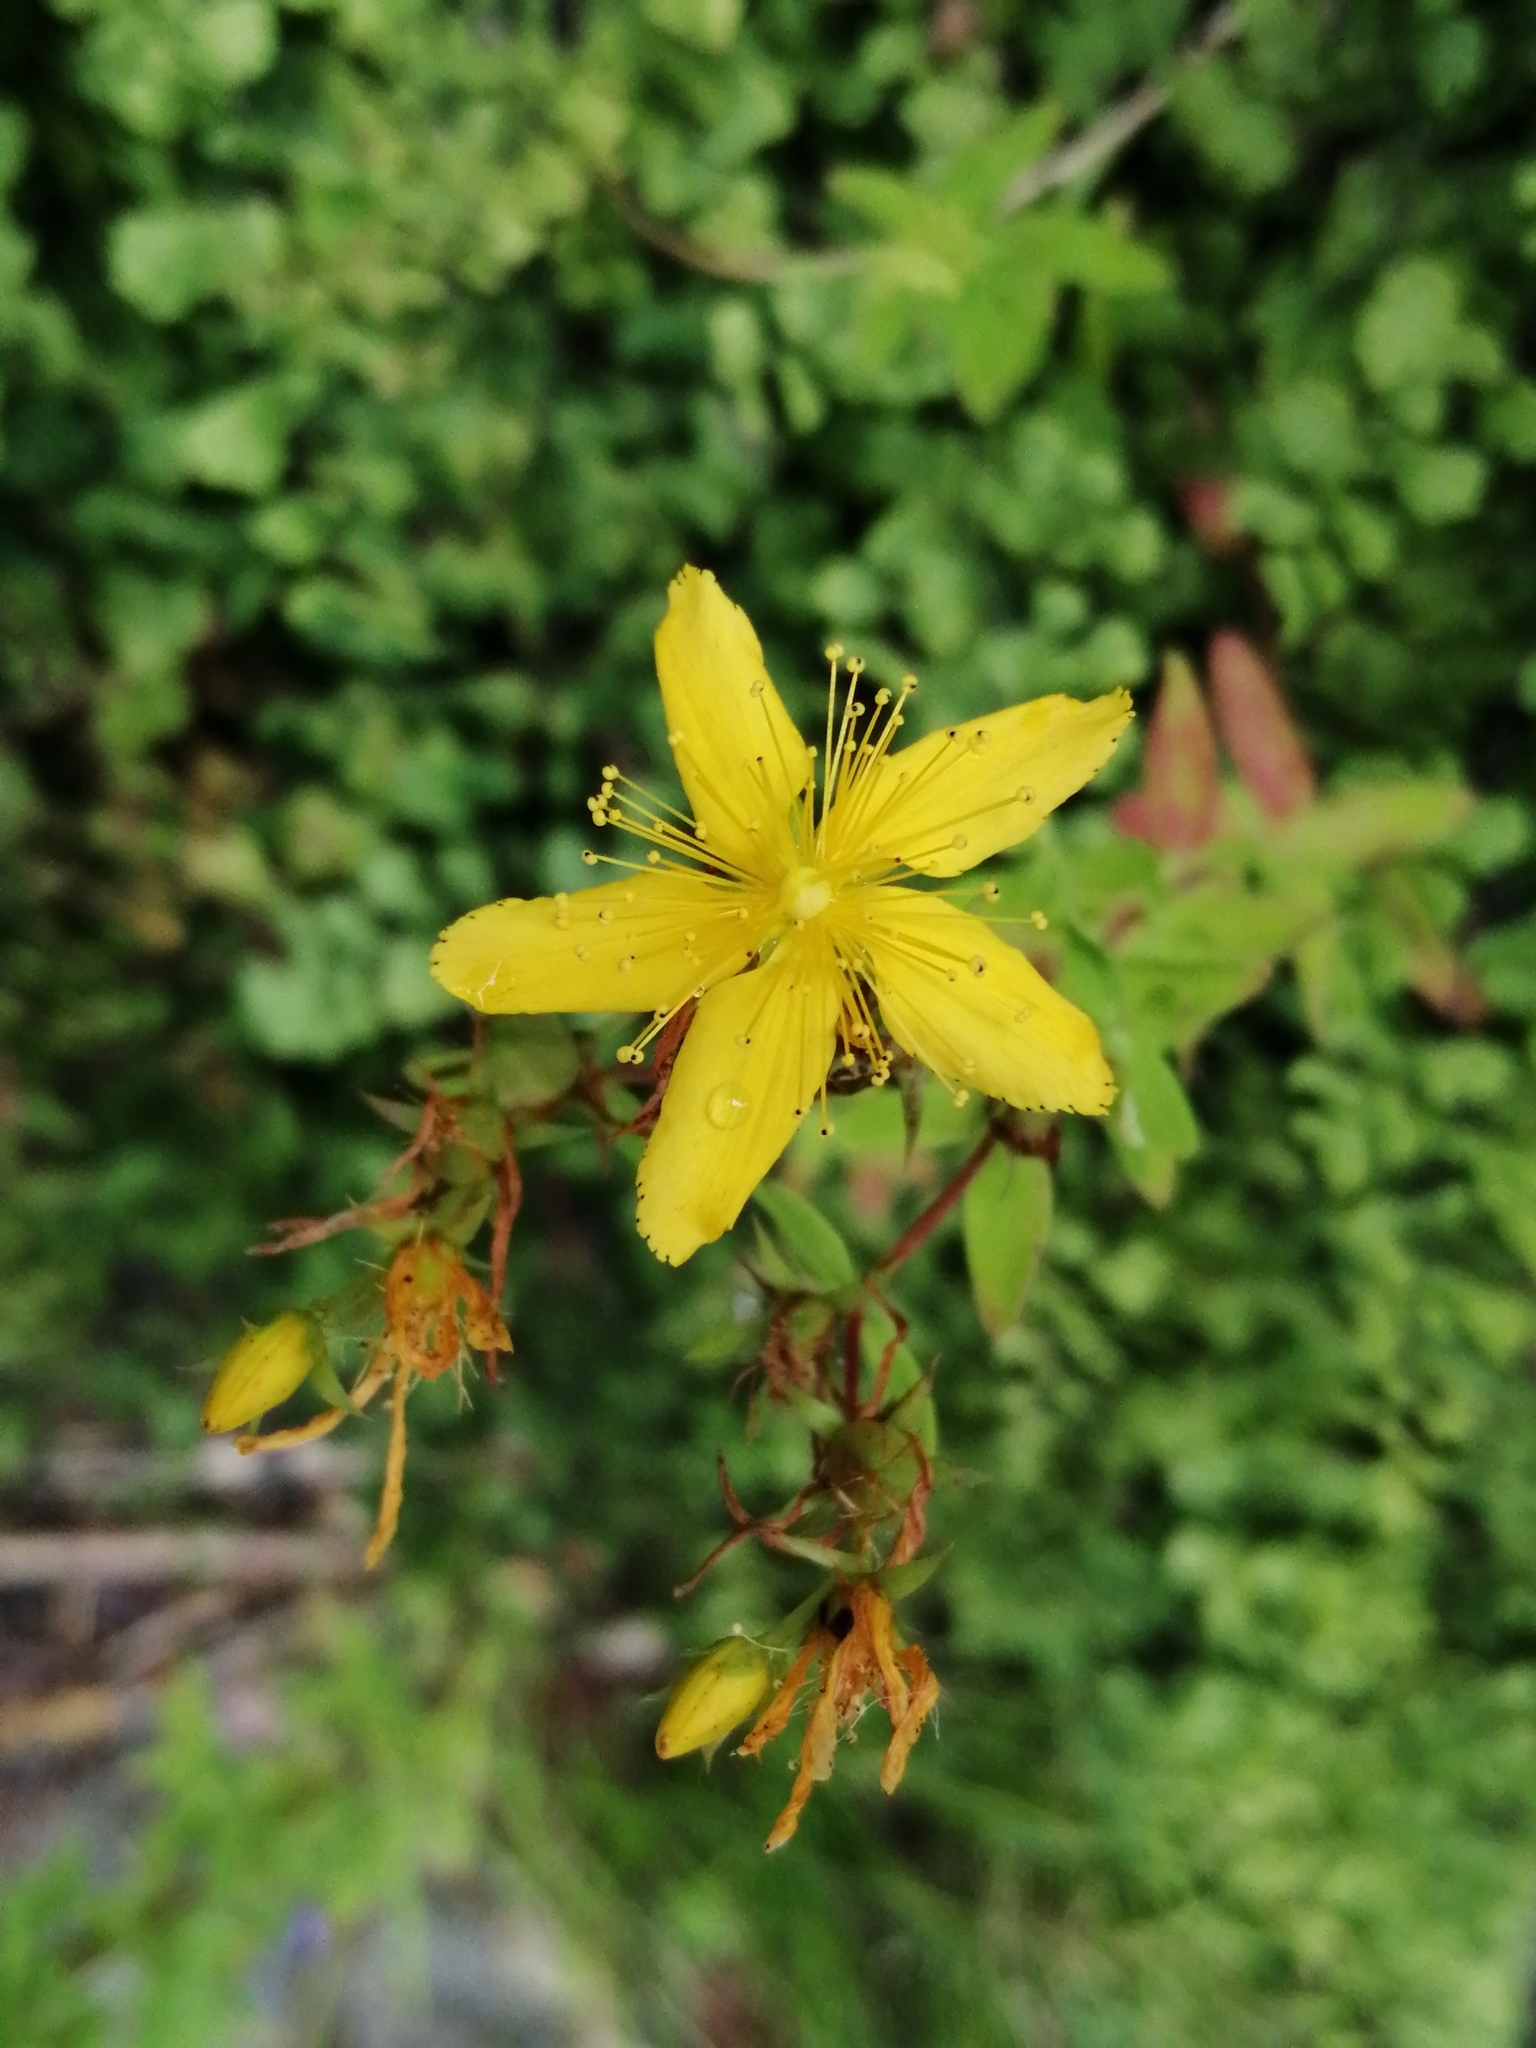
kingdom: Plantae
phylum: Tracheophyta
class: Magnoliopsida
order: Malpighiales
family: Hypericaceae
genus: Hypericum
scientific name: Hypericum perforatum
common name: Common st. johnswort
